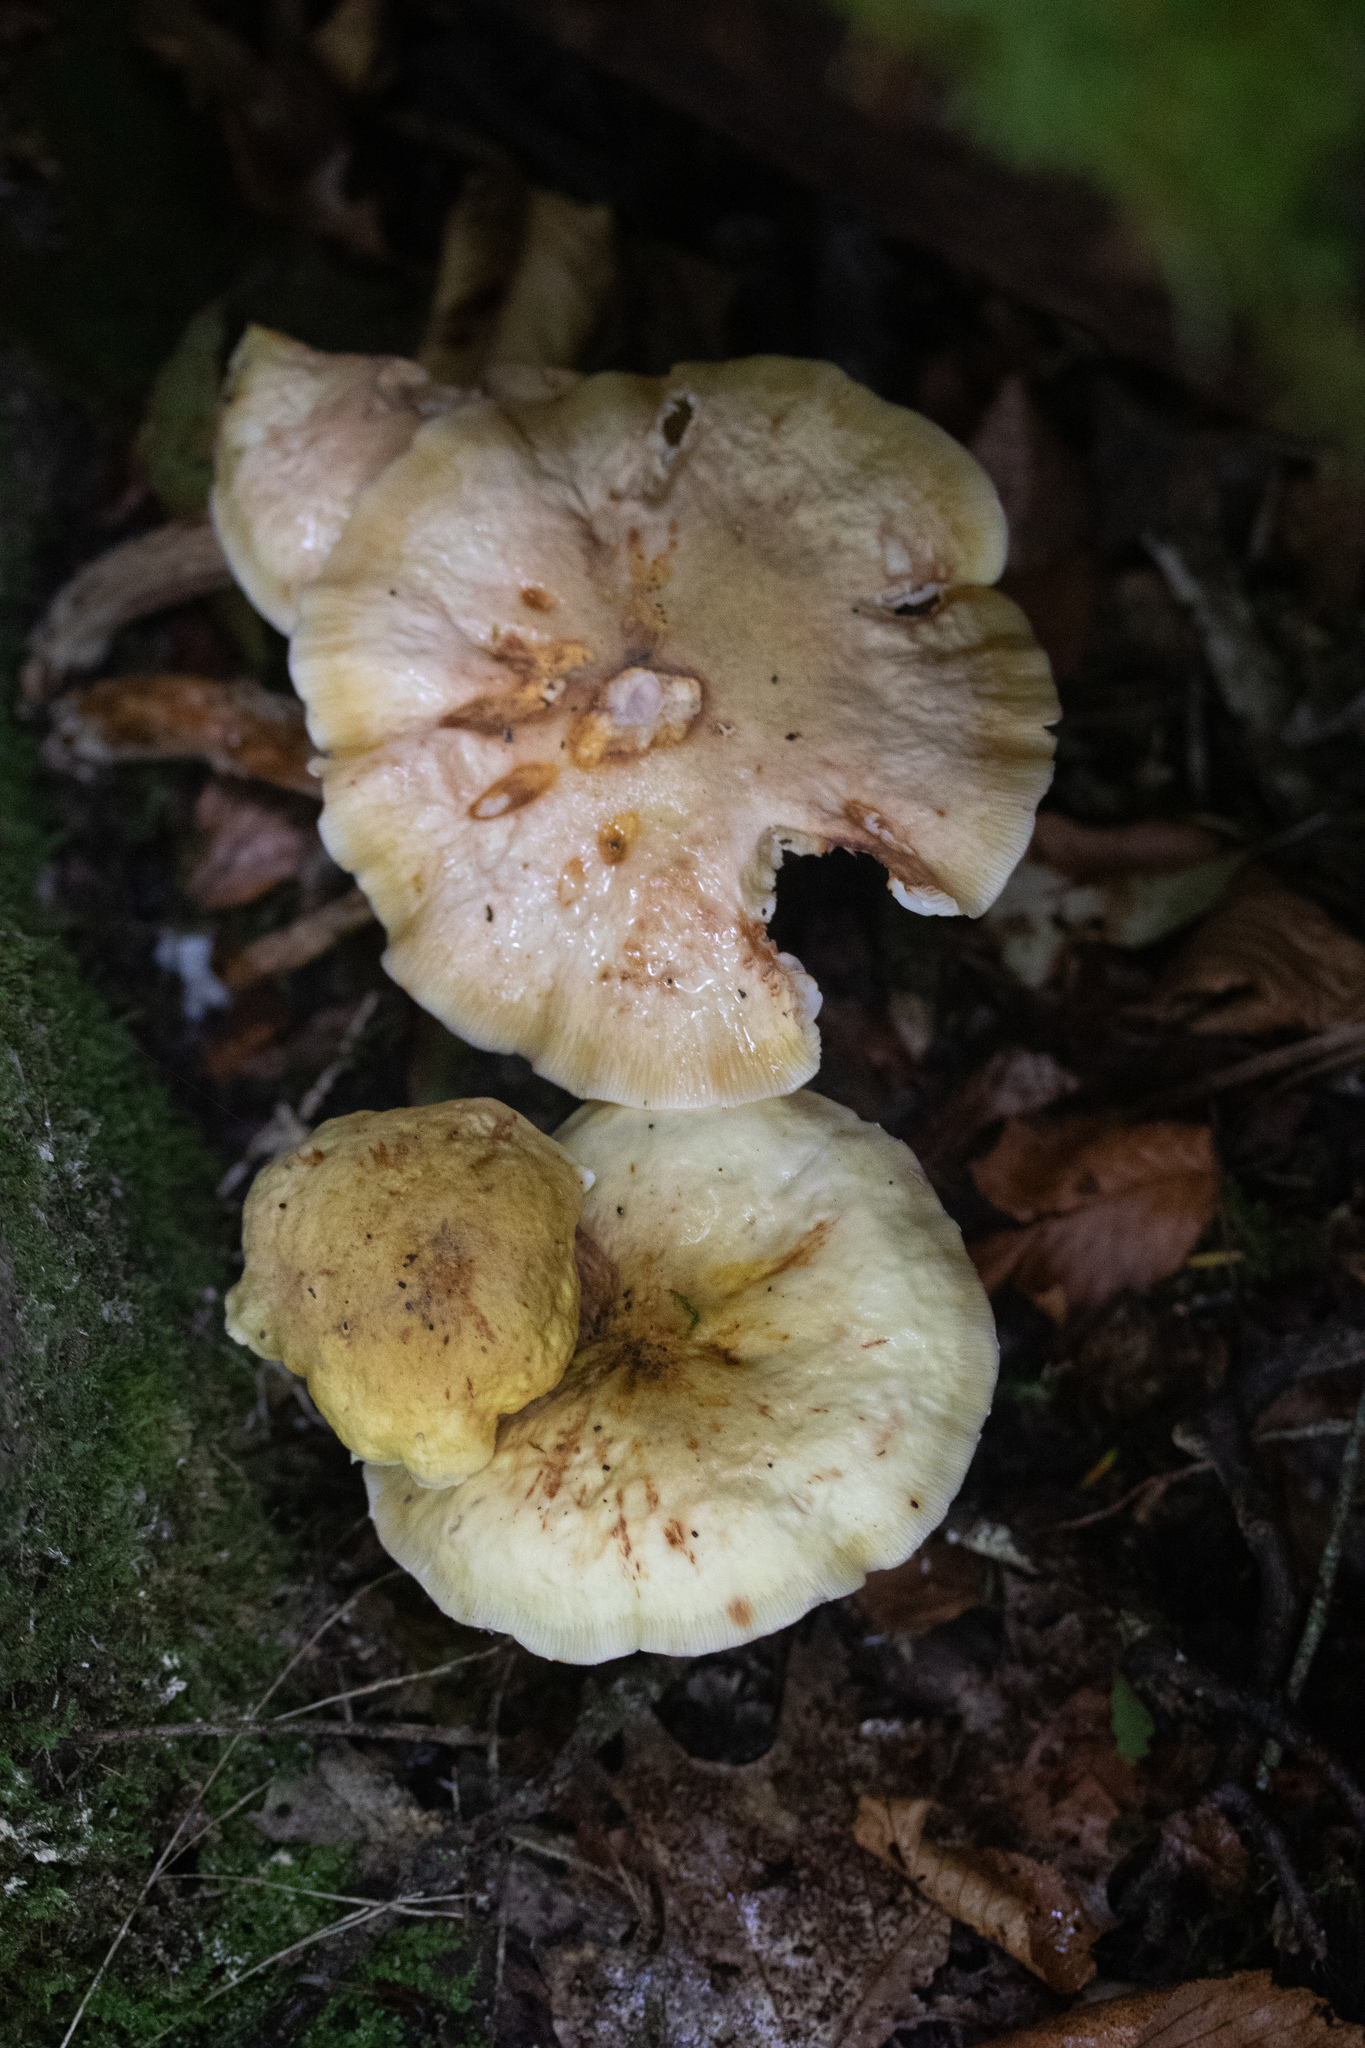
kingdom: Fungi
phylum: Basidiomycota
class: Agaricomycetes
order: Agaricales
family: Physalacriaceae
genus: Armillaria
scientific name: Armillaria mellea
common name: Honey fungus
